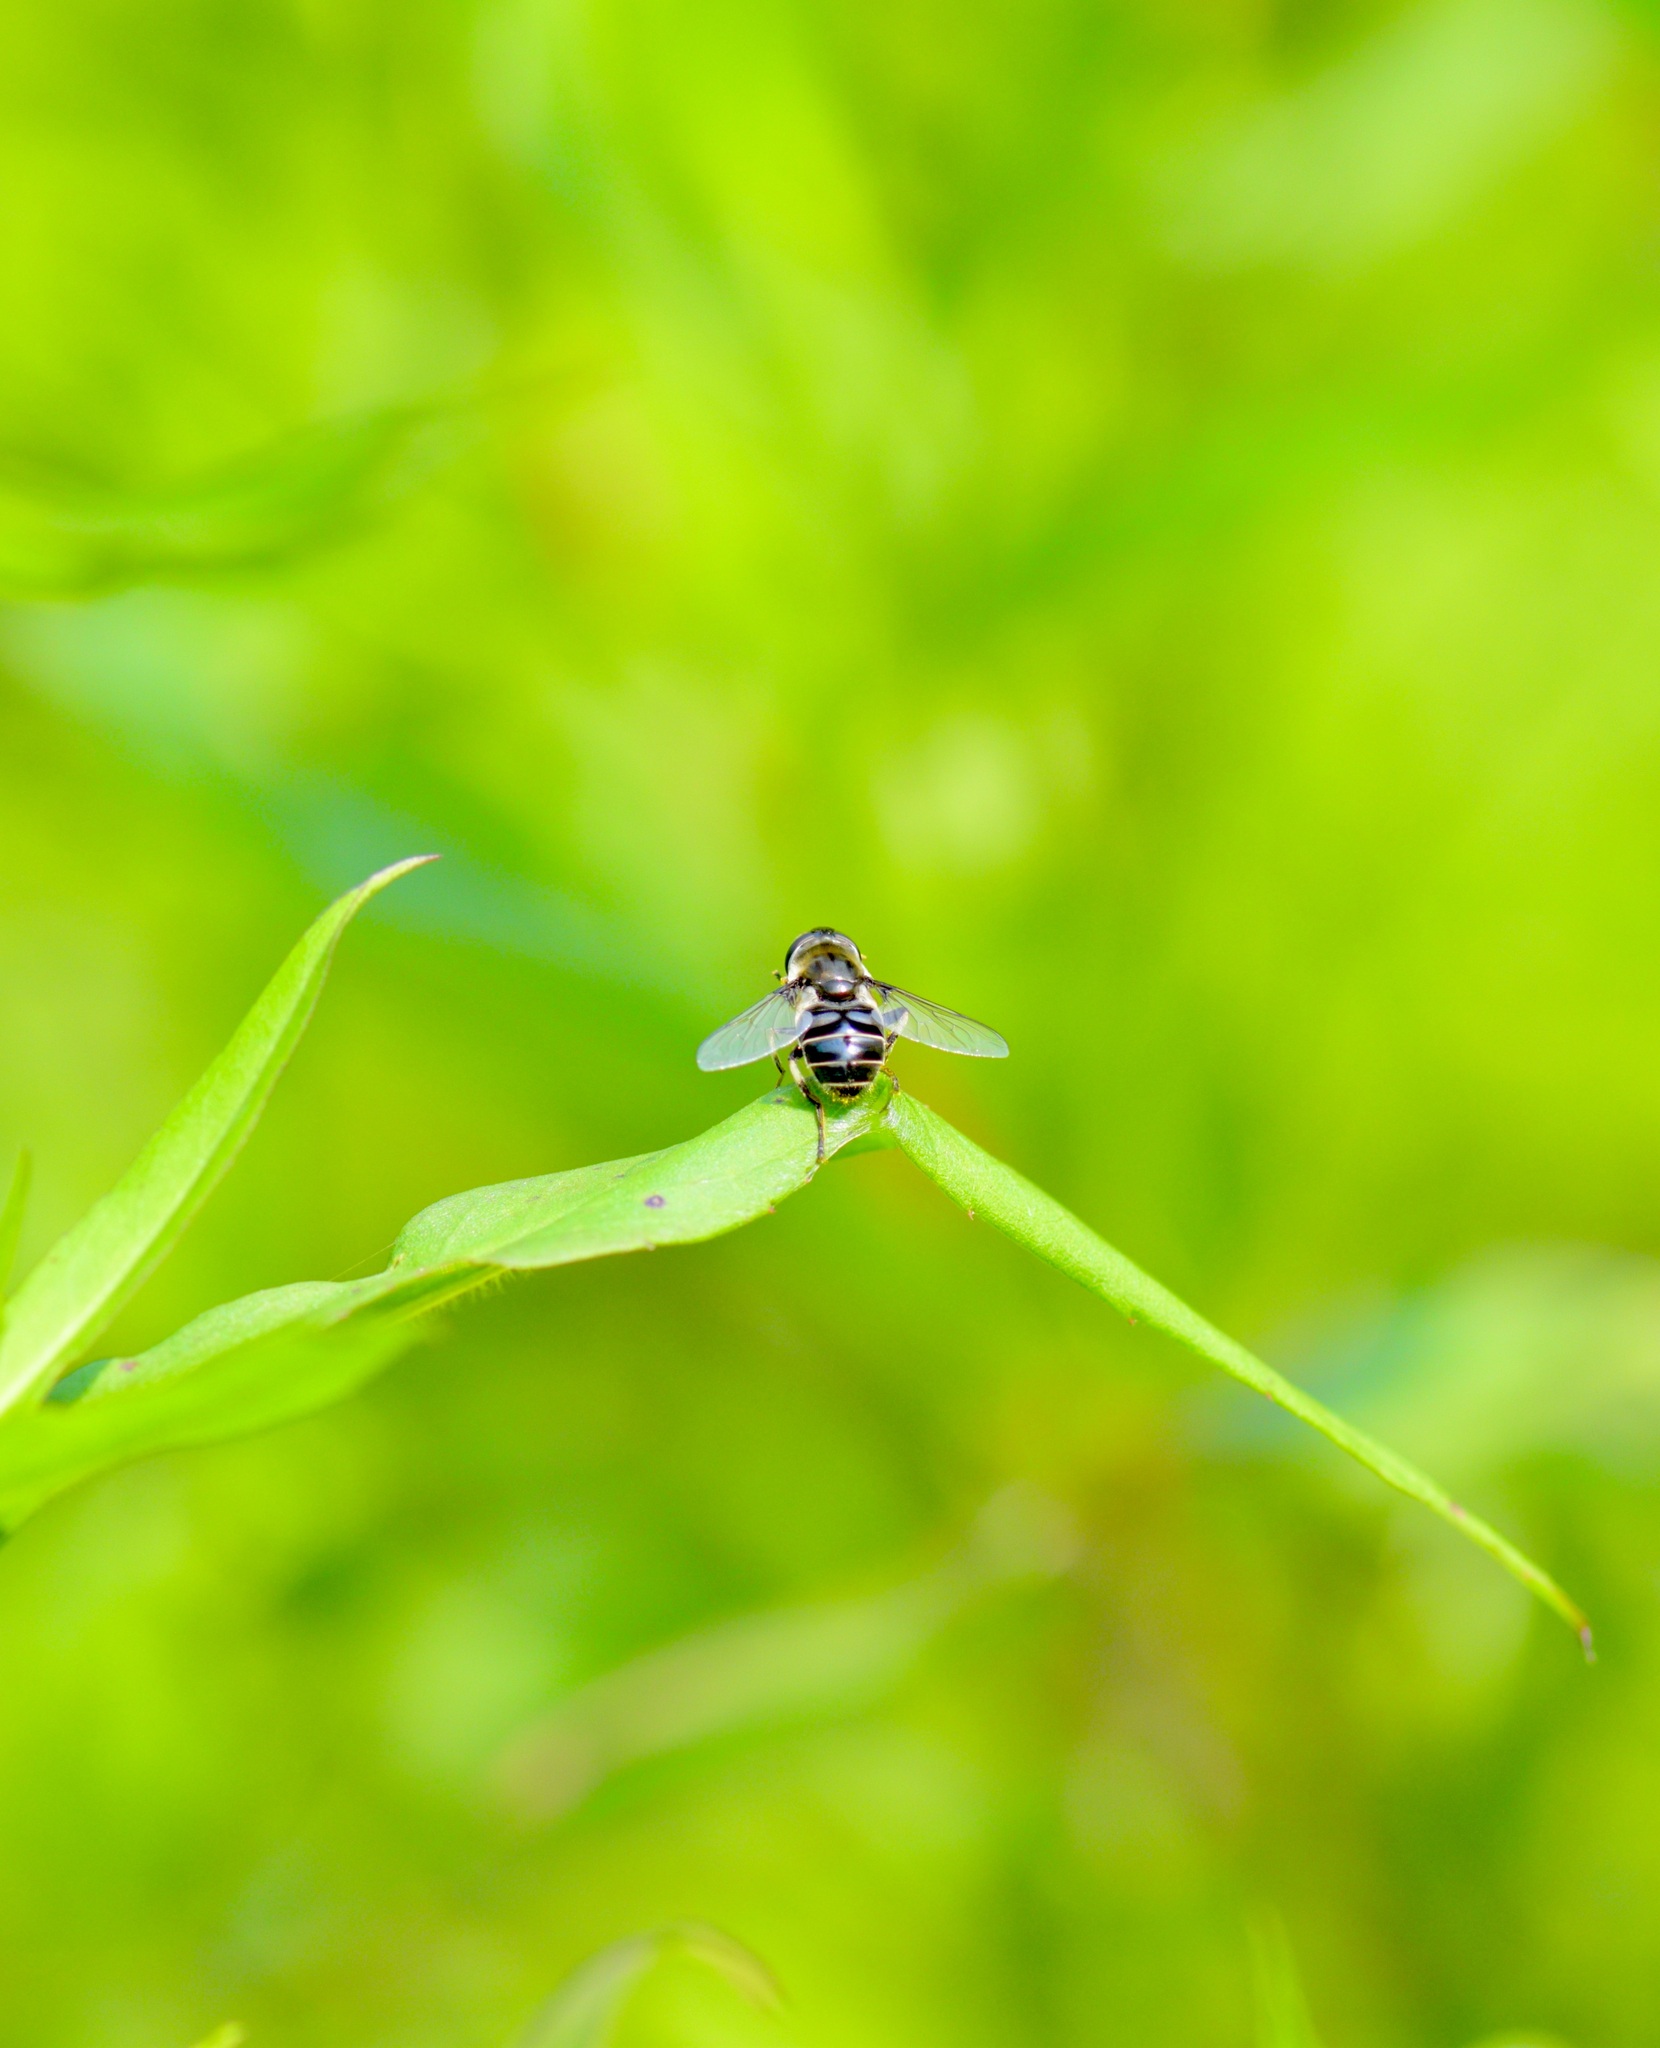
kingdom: Animalia
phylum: Arthropoda
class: Insecta
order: Diptera
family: Syrphidae
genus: Eristalis
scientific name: Eristalis dimidiata
